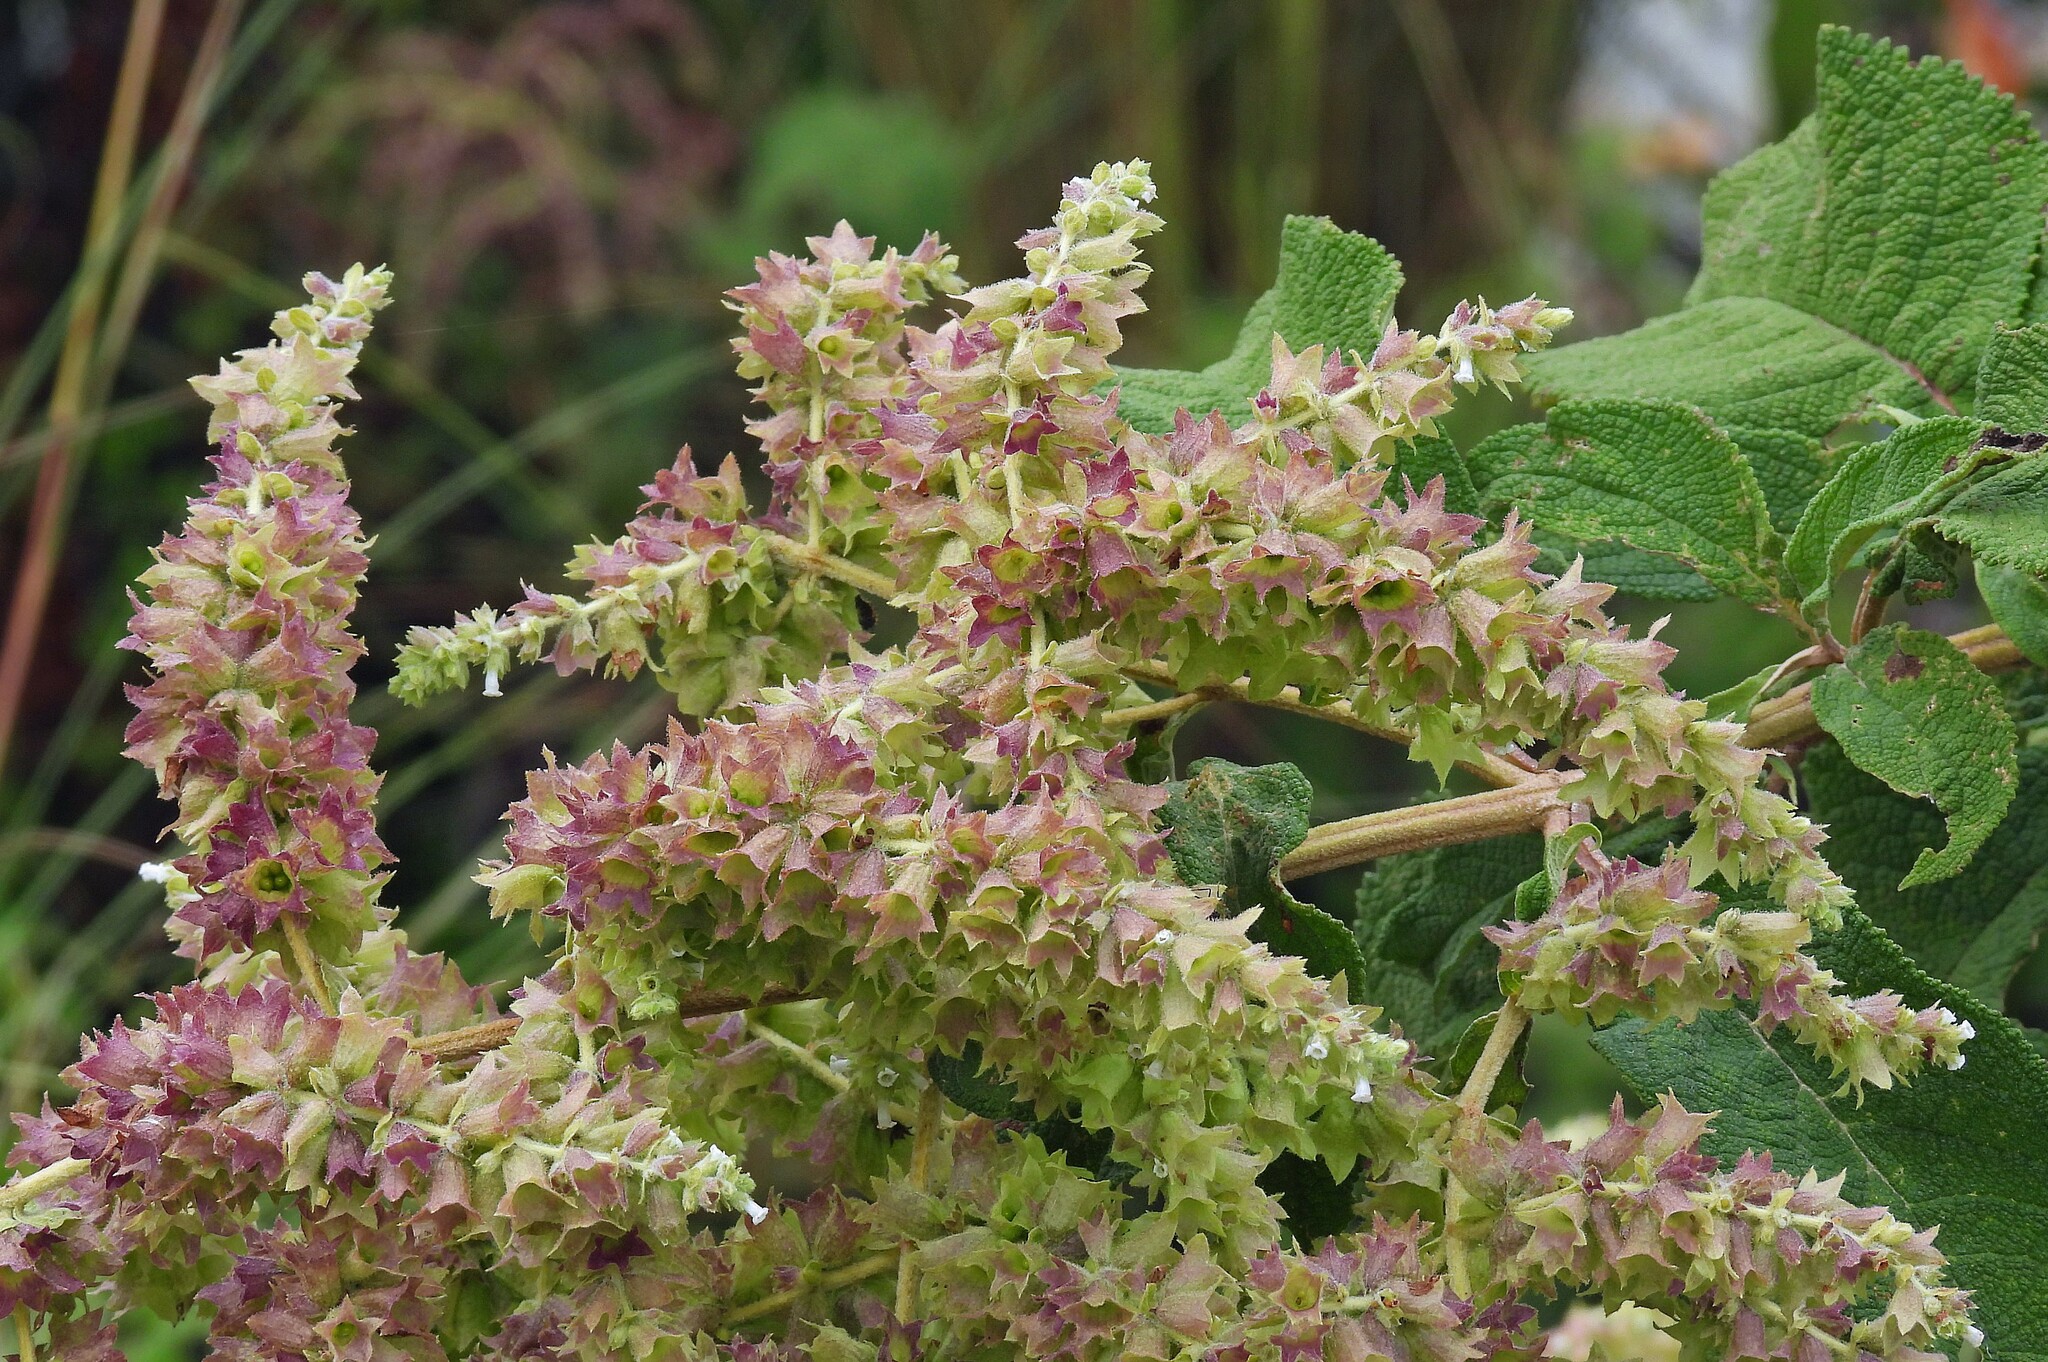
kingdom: Plantae
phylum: Tracheophyta
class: Magnoliopsida
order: Lamiales
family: Lamiaceae
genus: Lepechinia
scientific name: Lepechinia vesiculosa
